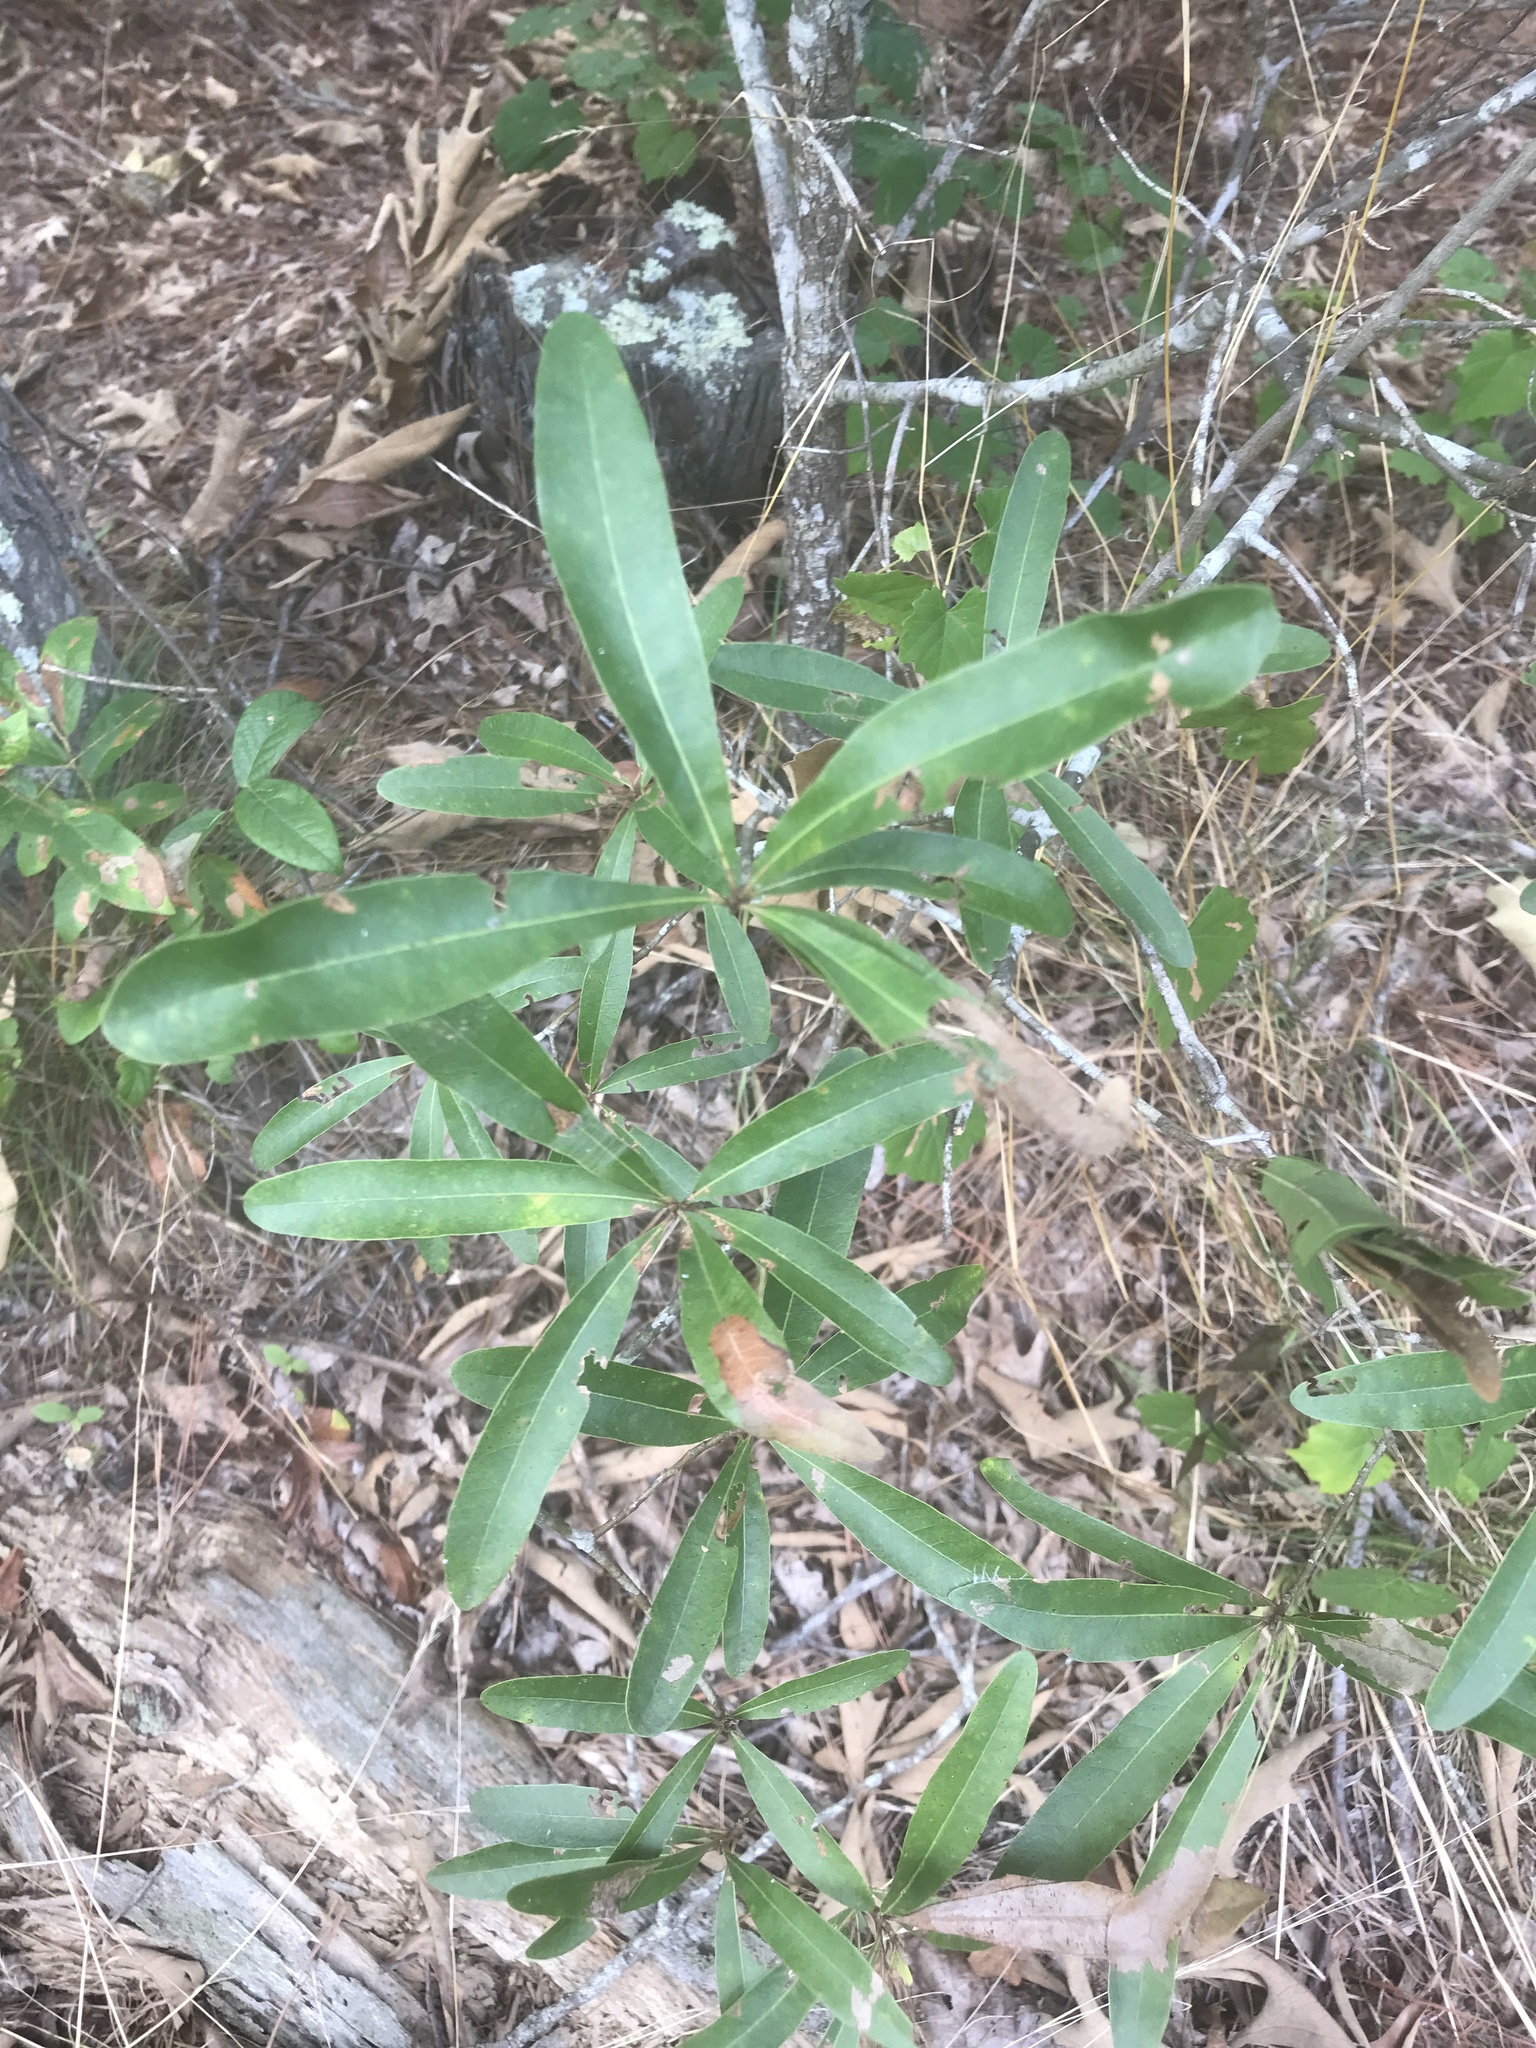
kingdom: Plantae
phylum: Tracheophyta
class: Magnoliopsida
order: Fagales
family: Fagaceae
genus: Quercus
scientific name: Quercus phellos
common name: Willow oak
